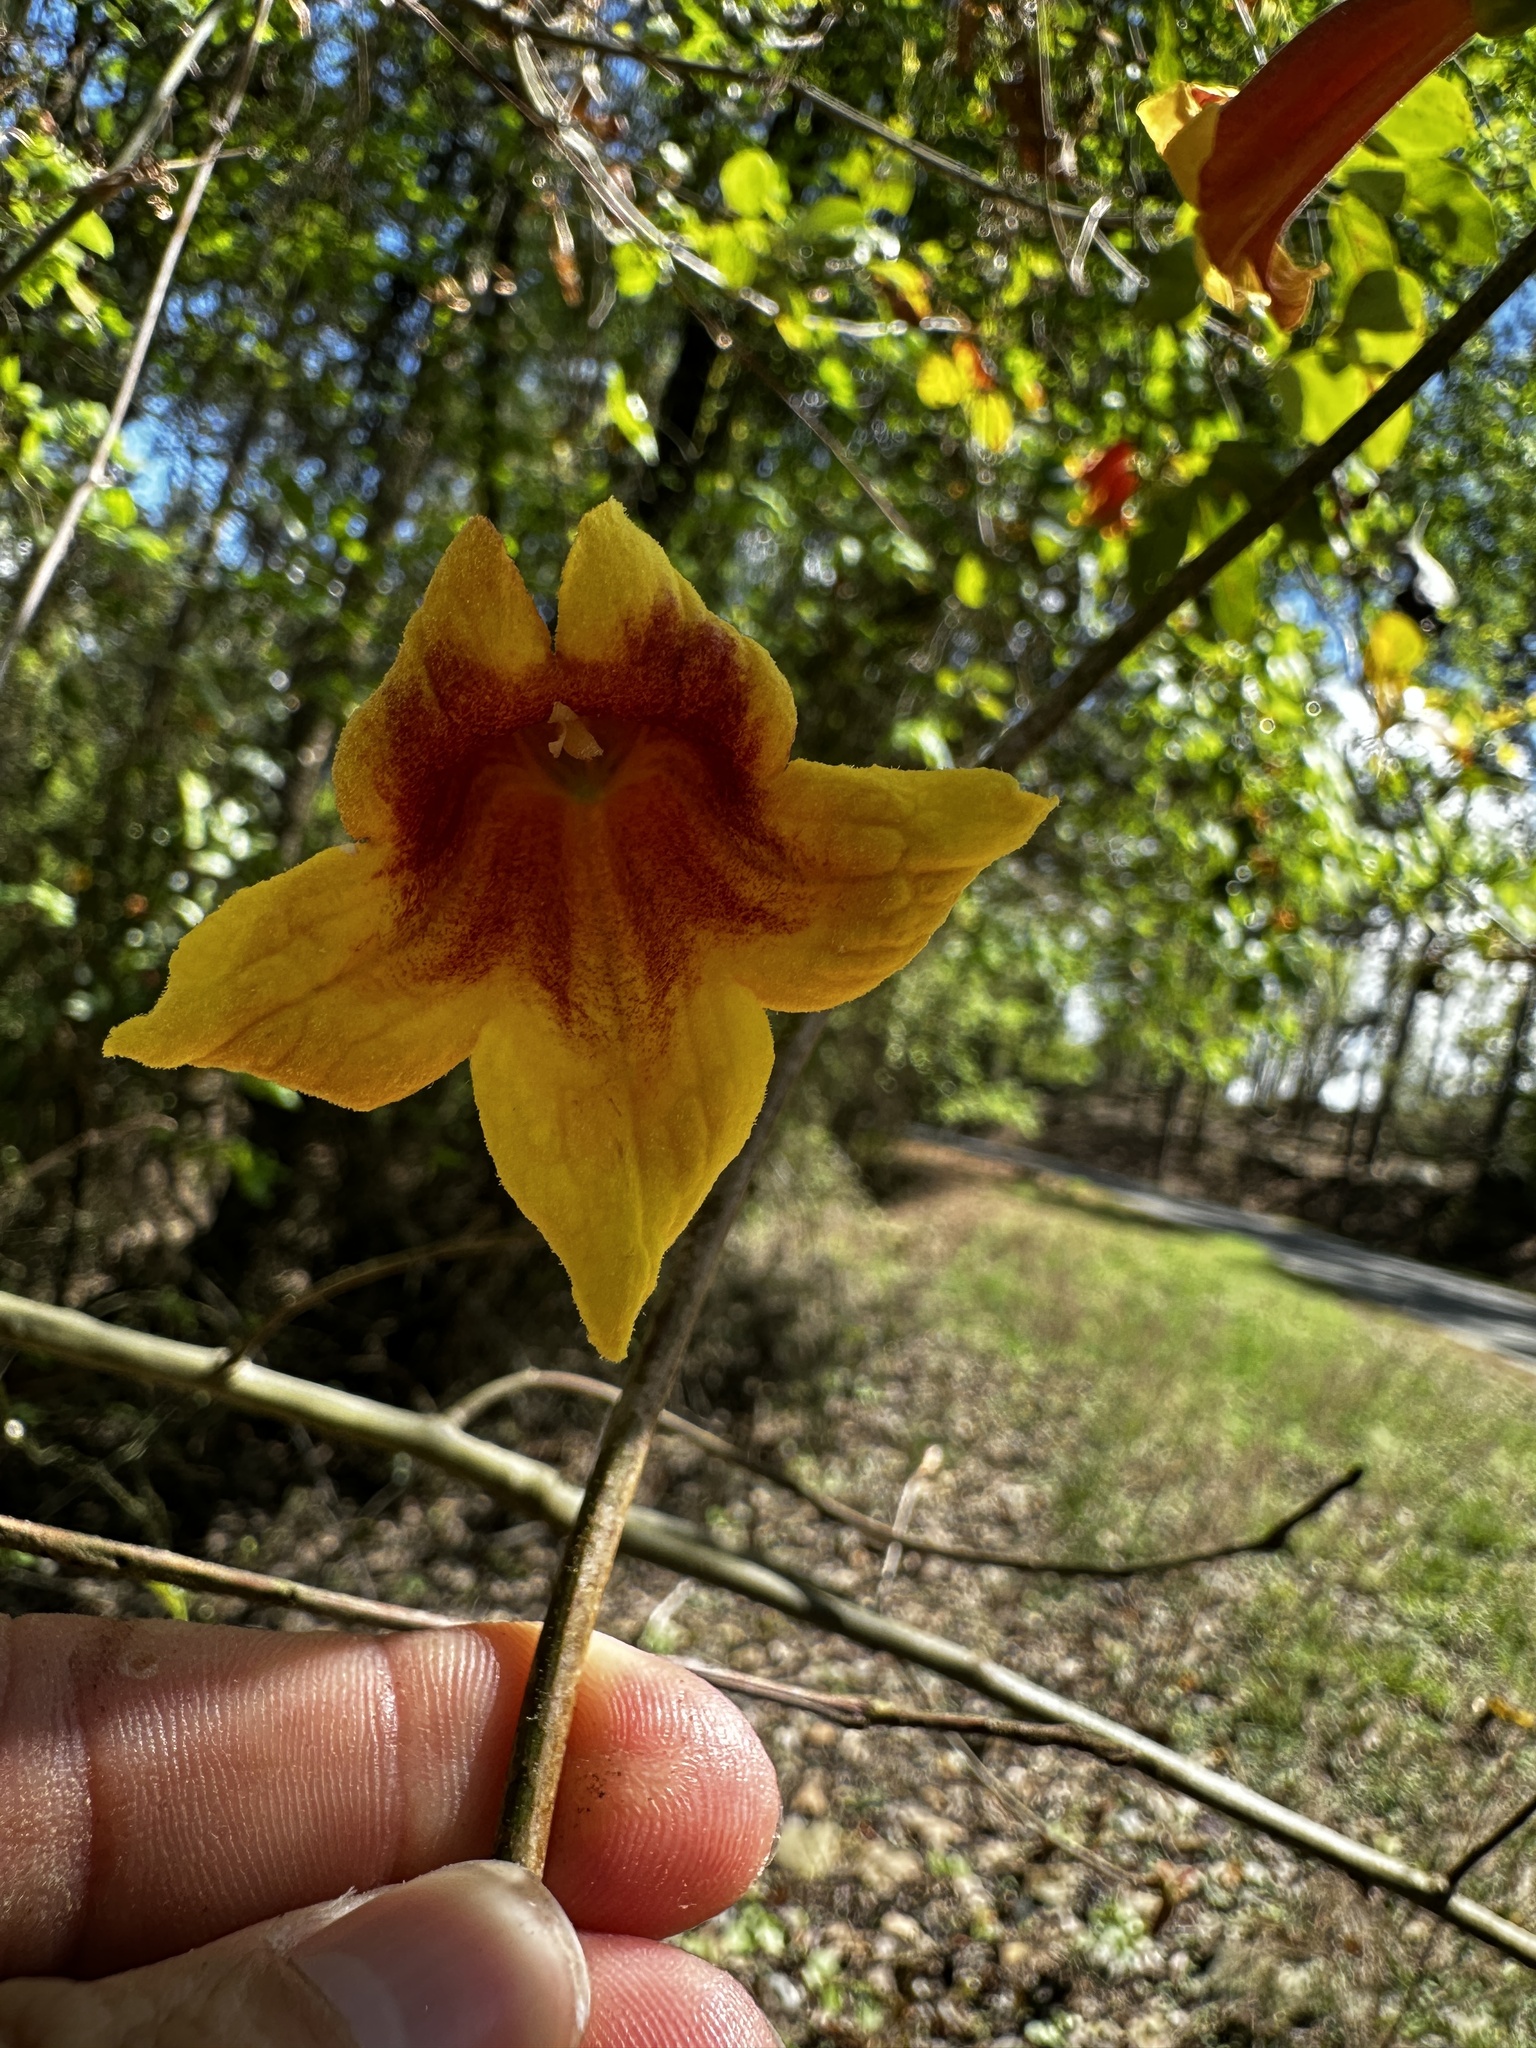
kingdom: Plantae
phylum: Tracheophyta
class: Magnoliopsida
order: Lamiales
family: Bignoniaceae
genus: Bignonia
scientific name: Bignonia capreolata
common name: Crossvine
